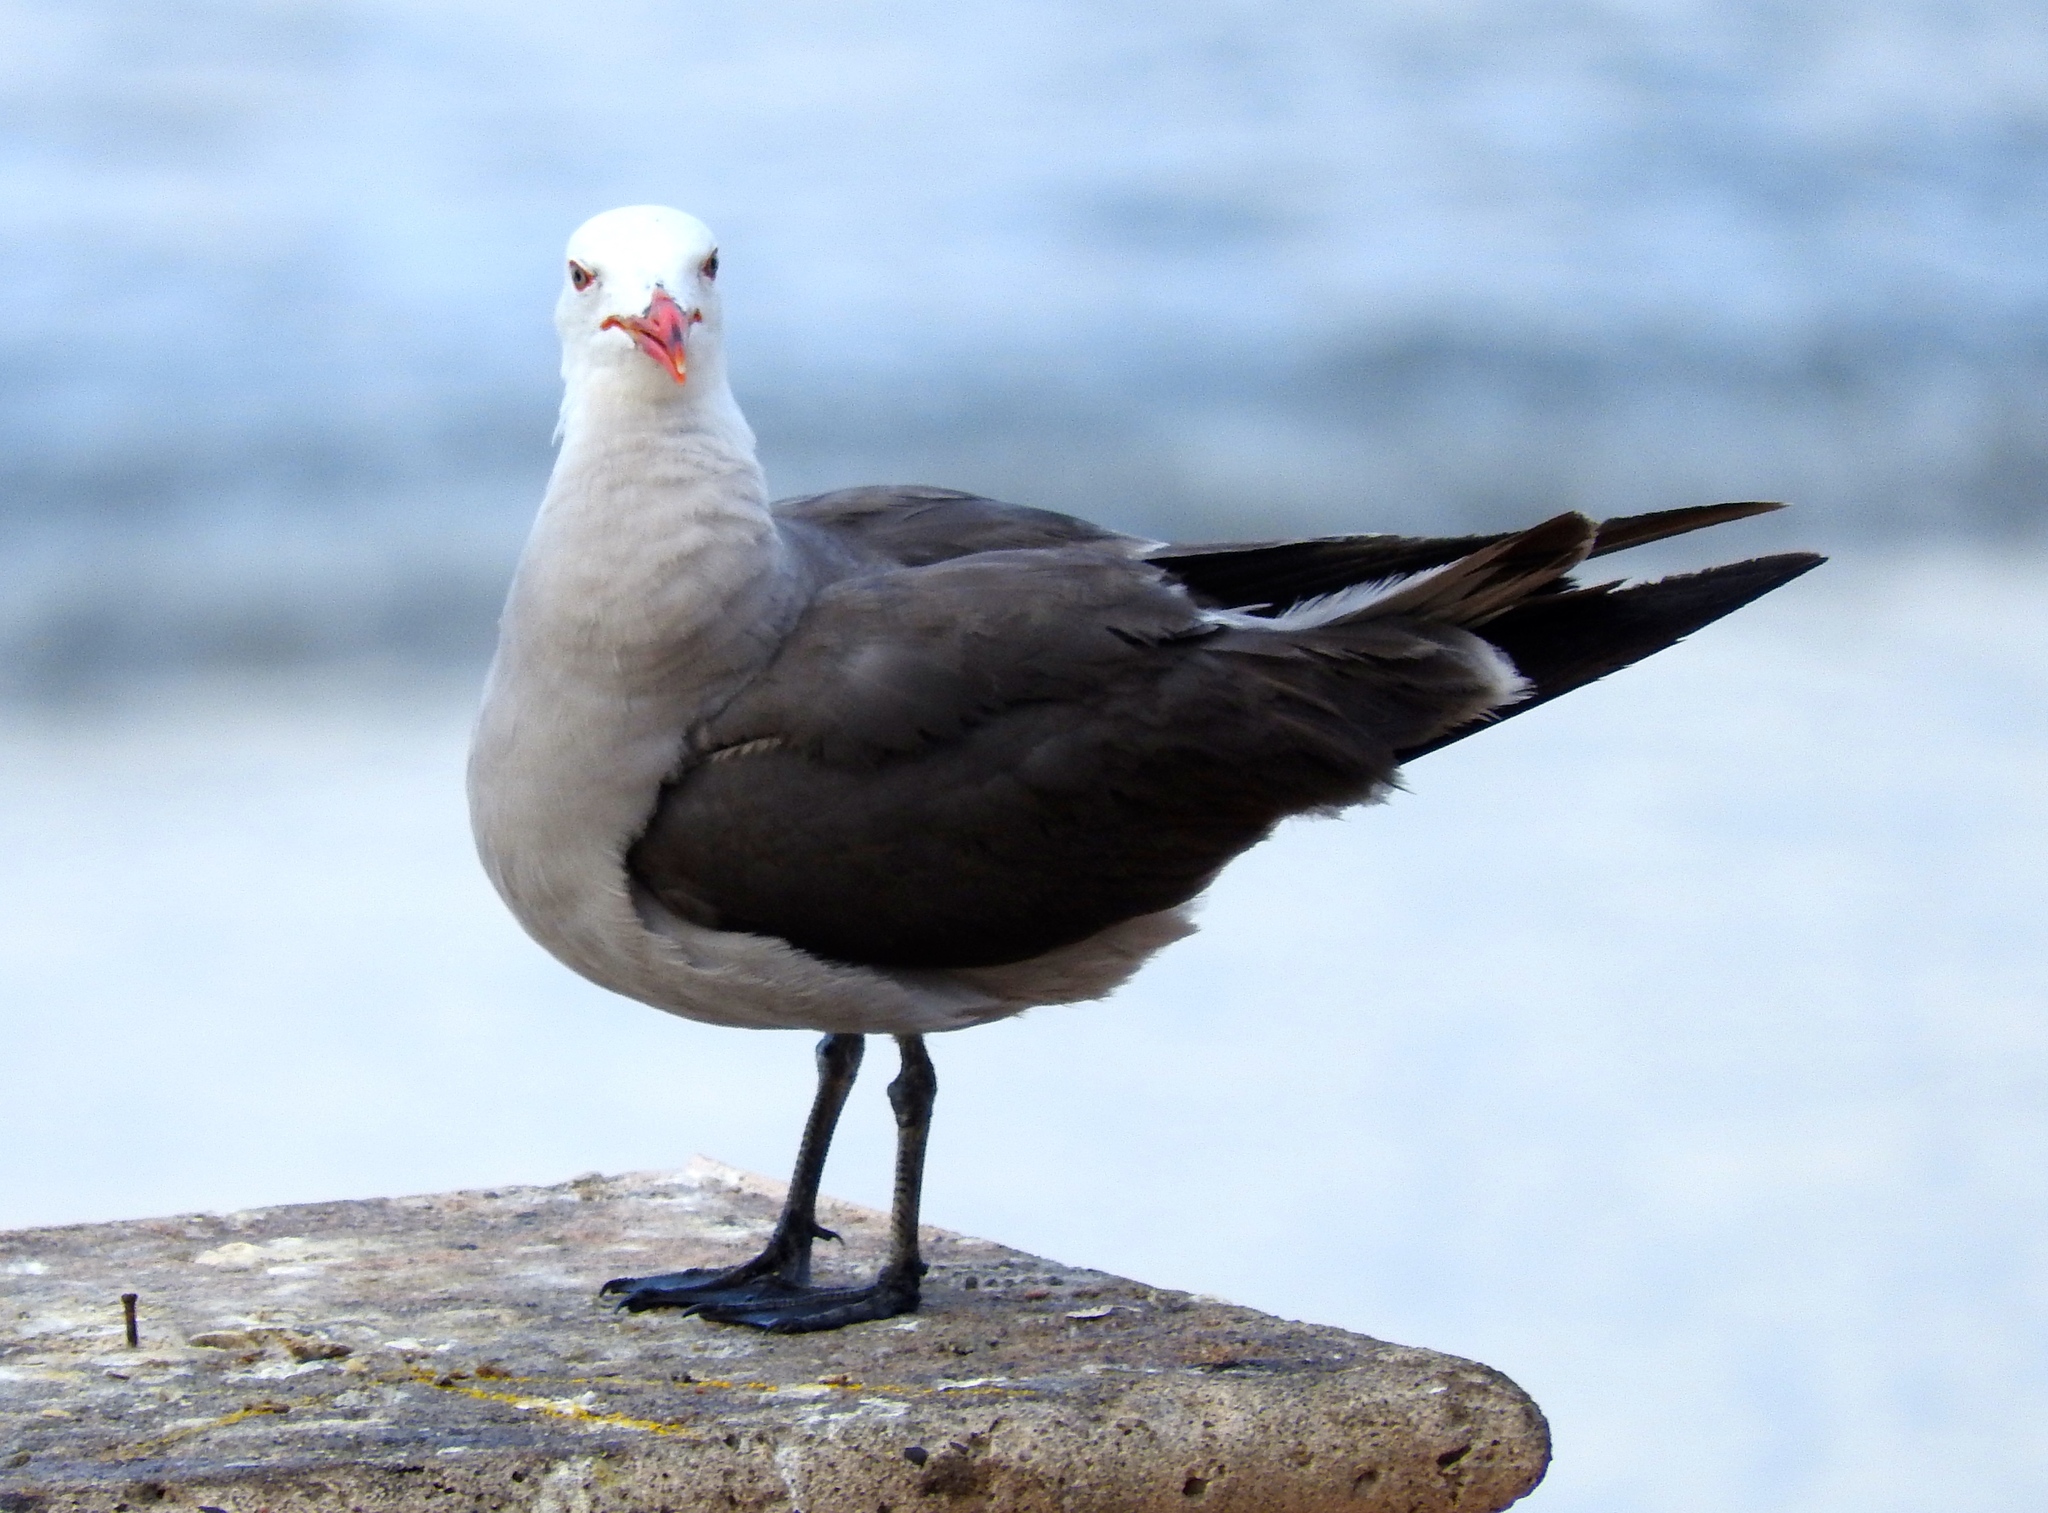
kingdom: Animalia
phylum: Chordata
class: Aves
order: Charadriiformes
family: Laridae
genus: Larus
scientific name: Larus heermanni
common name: Heermann's gull
